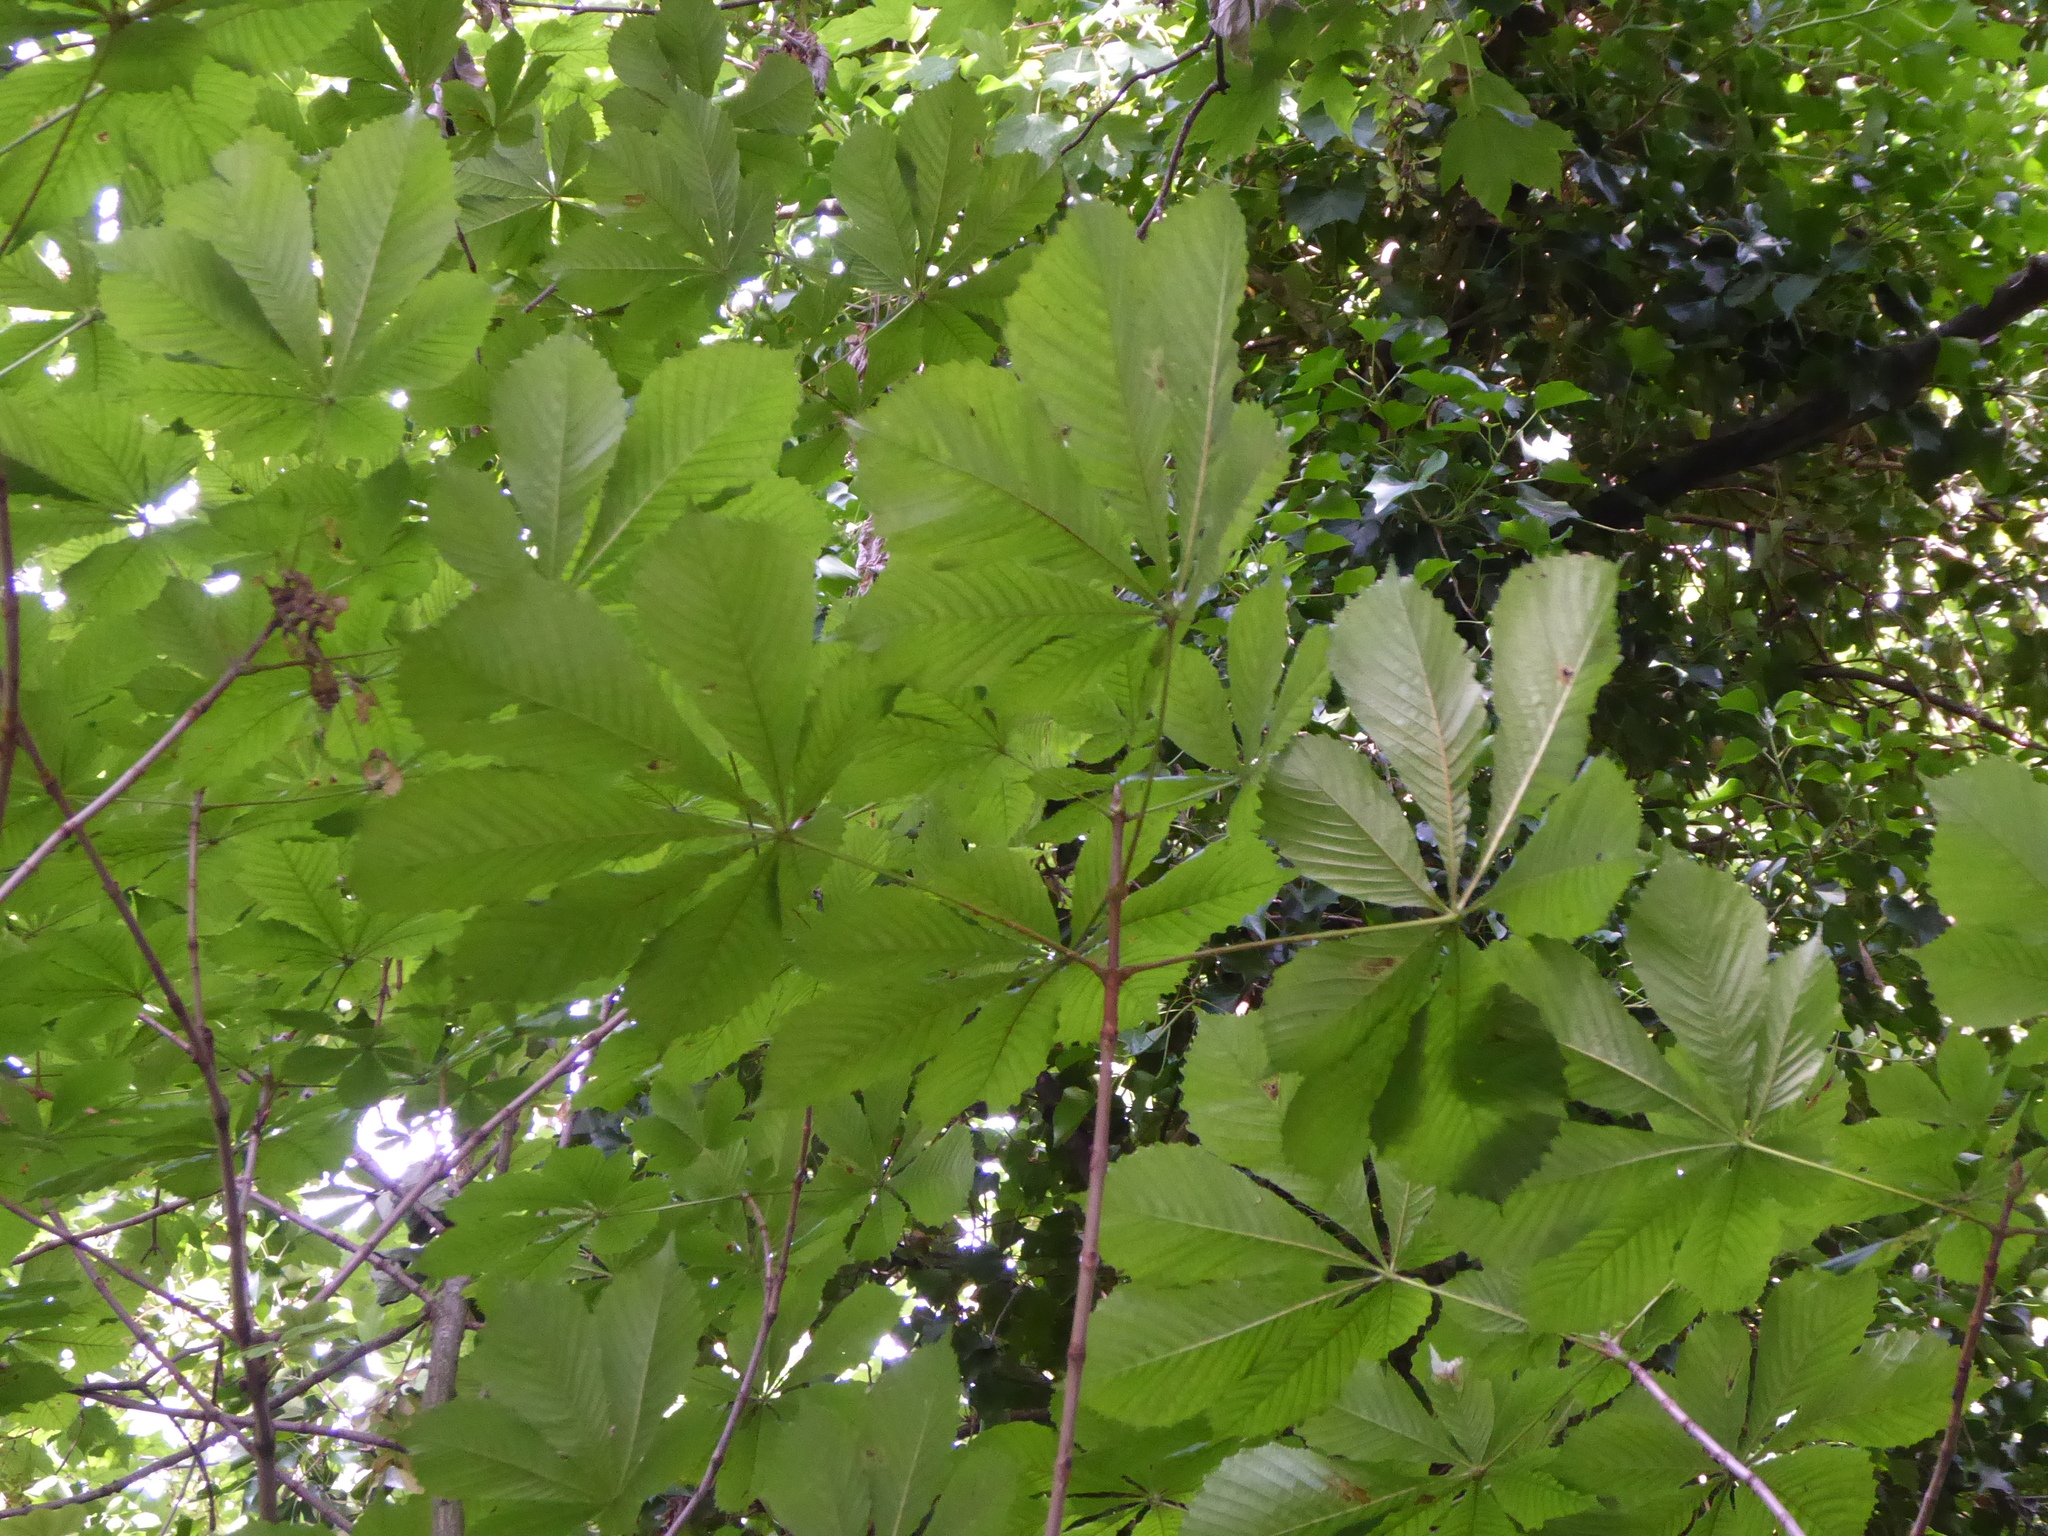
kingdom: Plantae
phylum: Tracheophyta
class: Magnoliopsida
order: Sapindales
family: Sapindaceae
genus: Aesculus
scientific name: Aesculus hippocastanum
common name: Horse-chestnut
